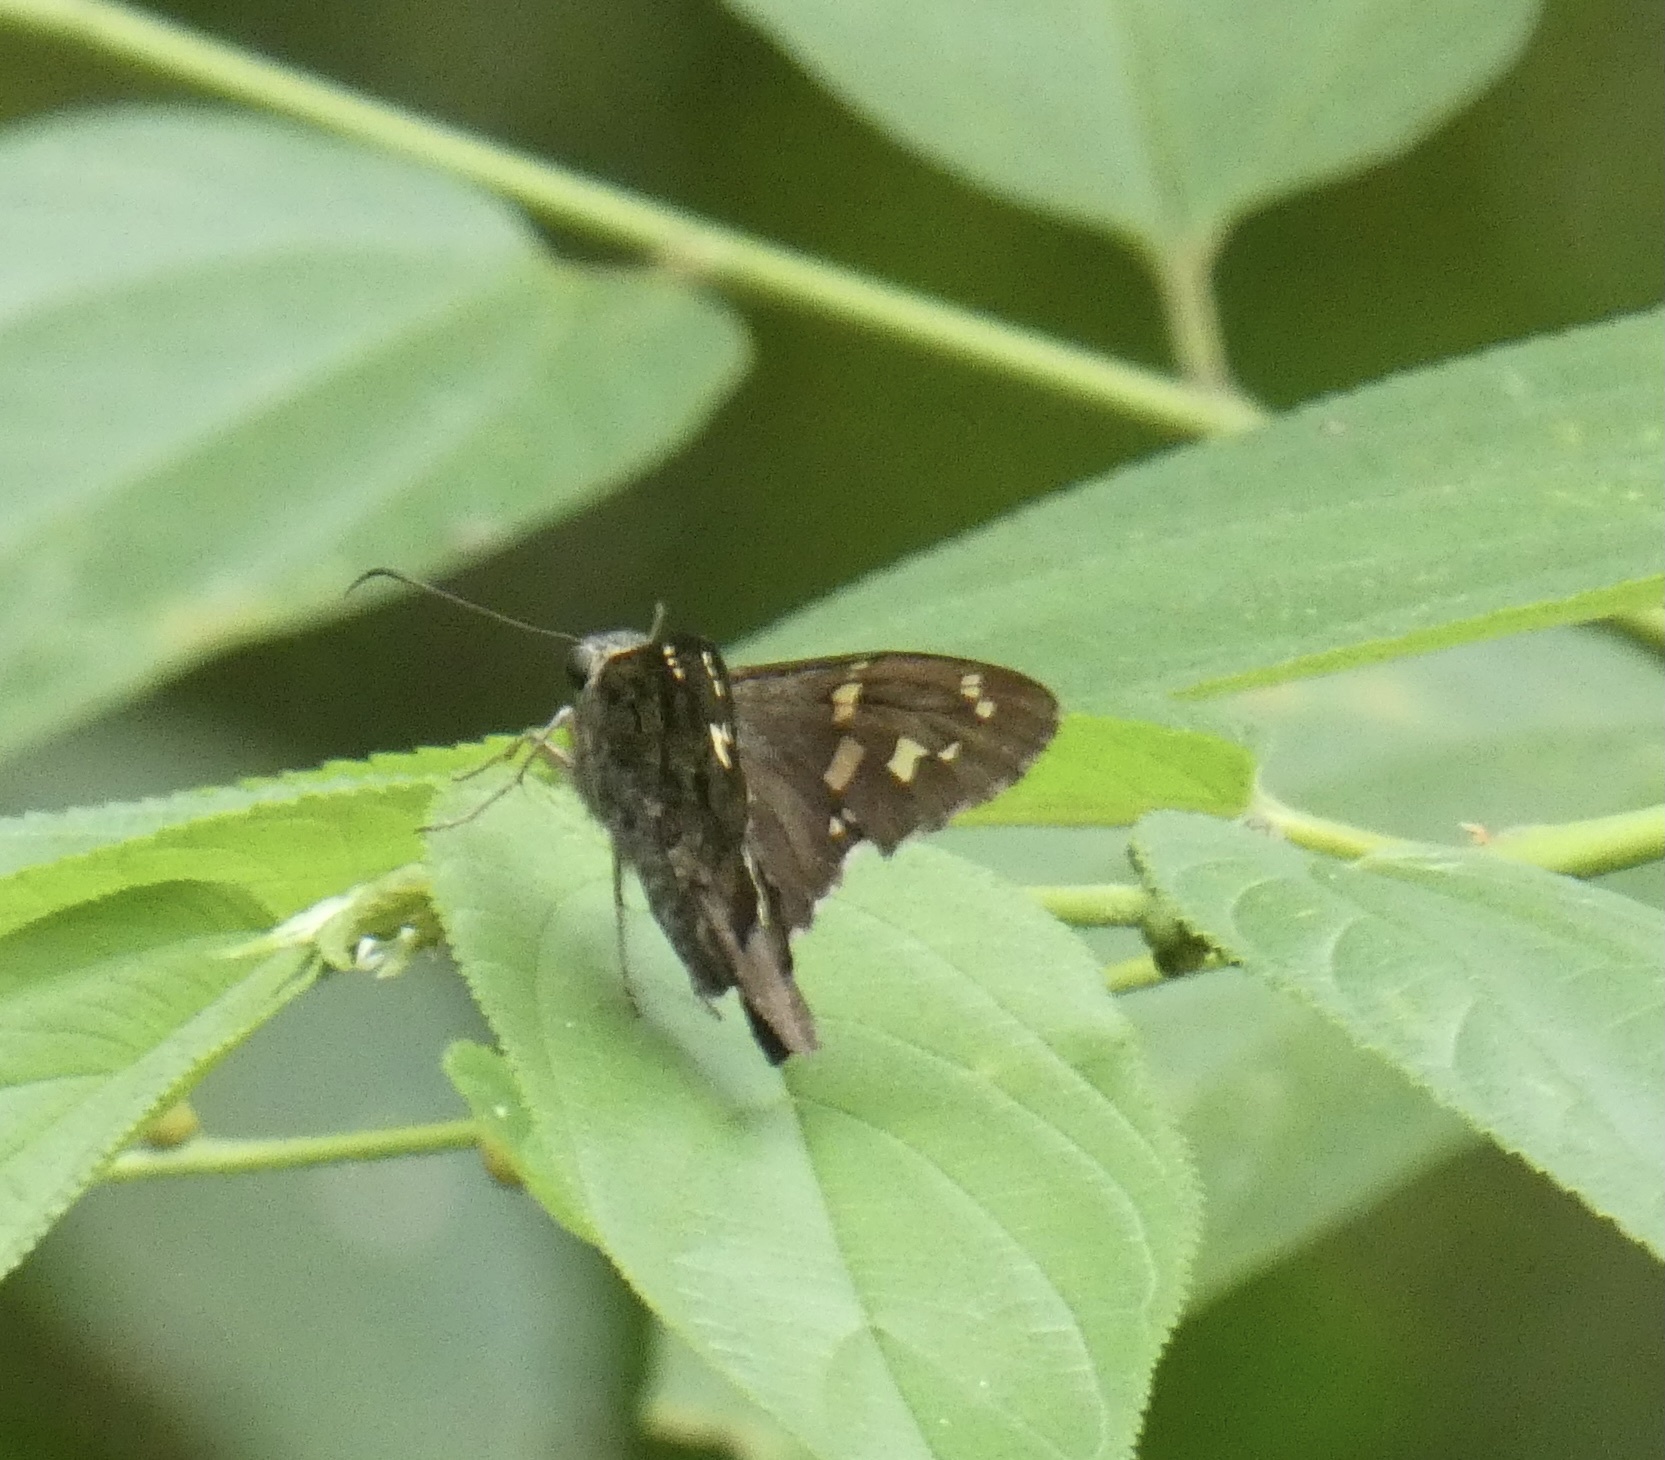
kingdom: Animalia
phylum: Arthropoda
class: Insecta
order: Lepidoptera
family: Hesperiidae
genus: Thorybes
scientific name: Thorybes
